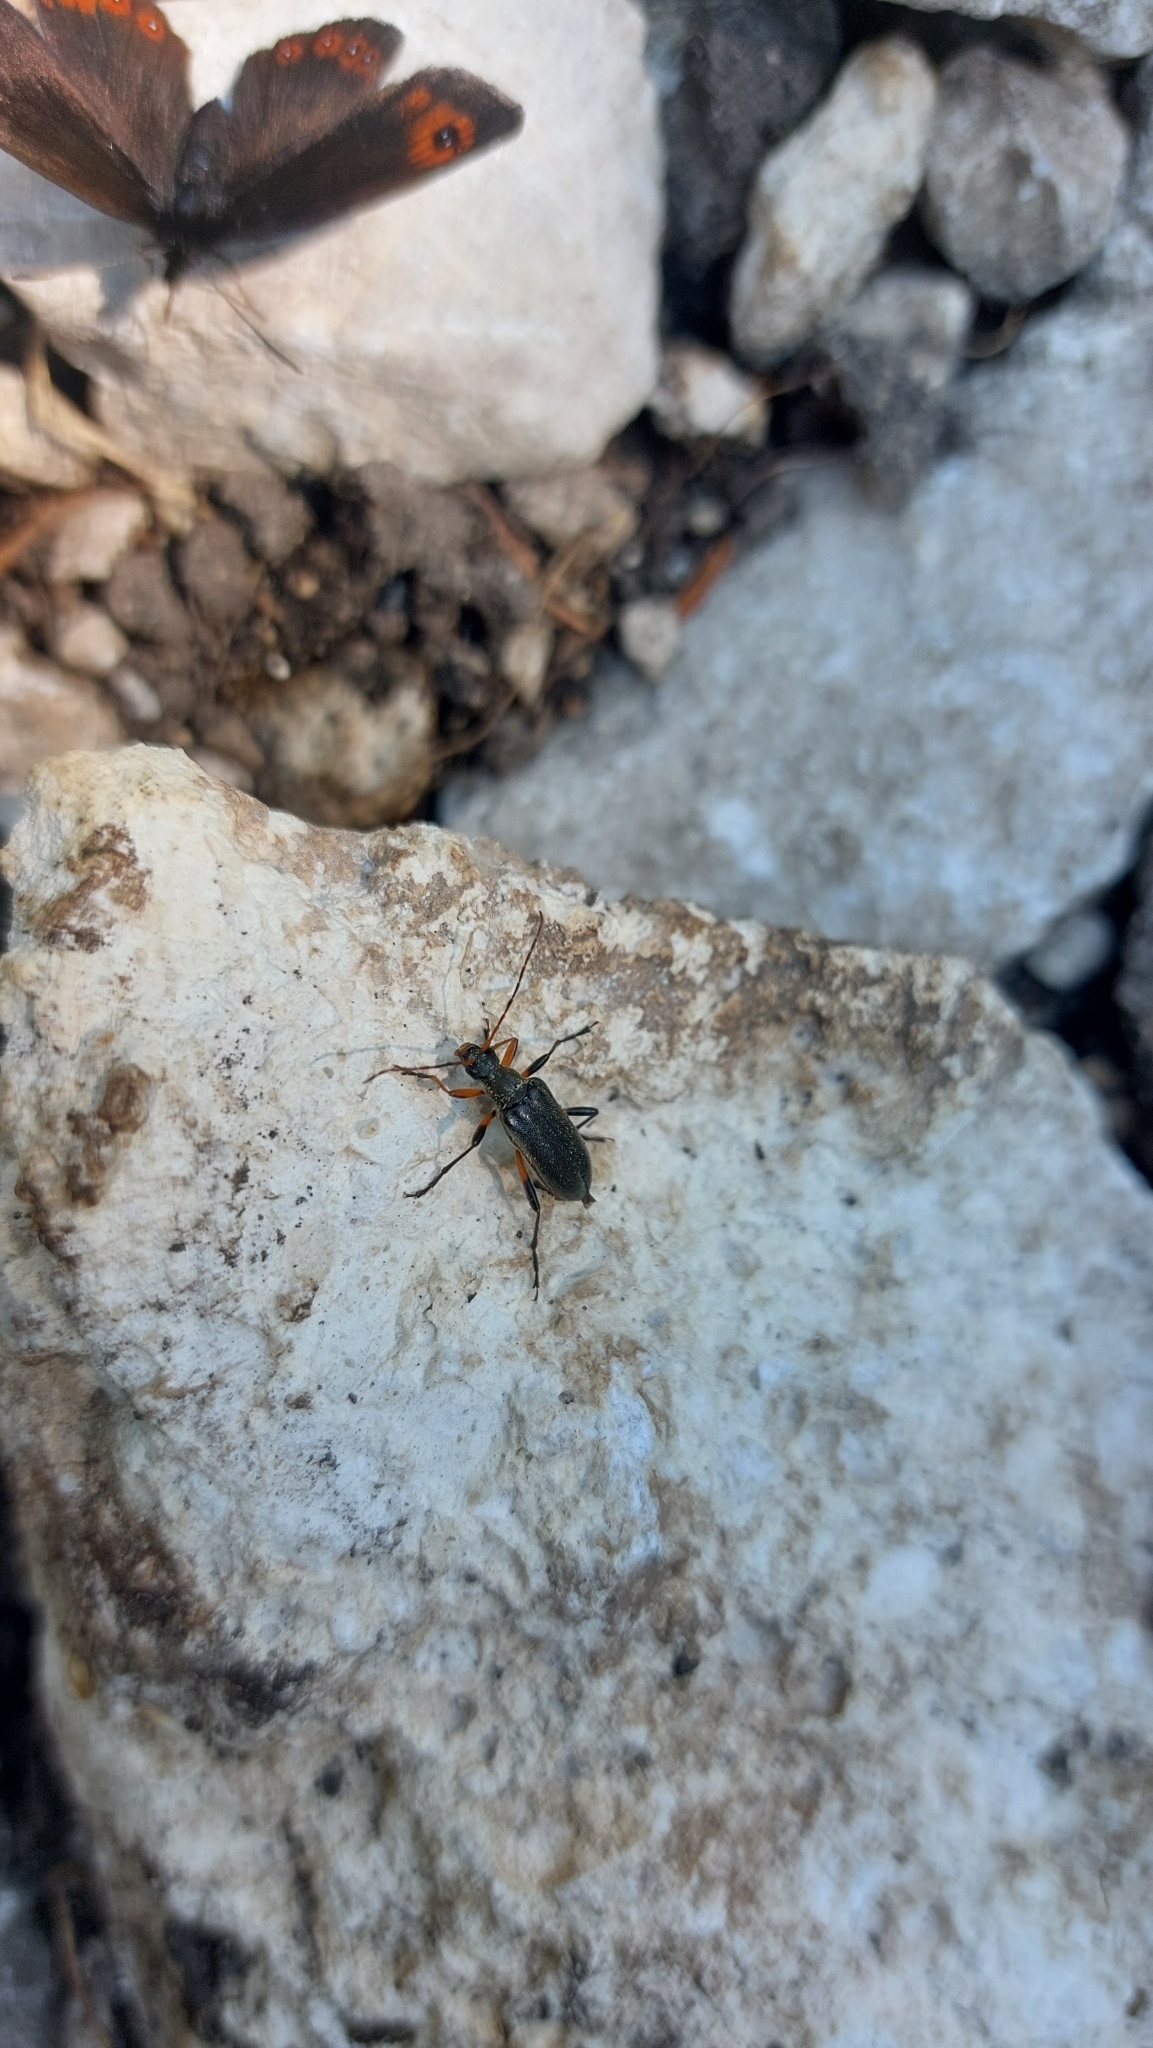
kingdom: Animalia
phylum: Arthropoda
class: Insecta
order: Coleoptera
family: Cerambycidae
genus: Cortodera
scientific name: Cortodera femorata
